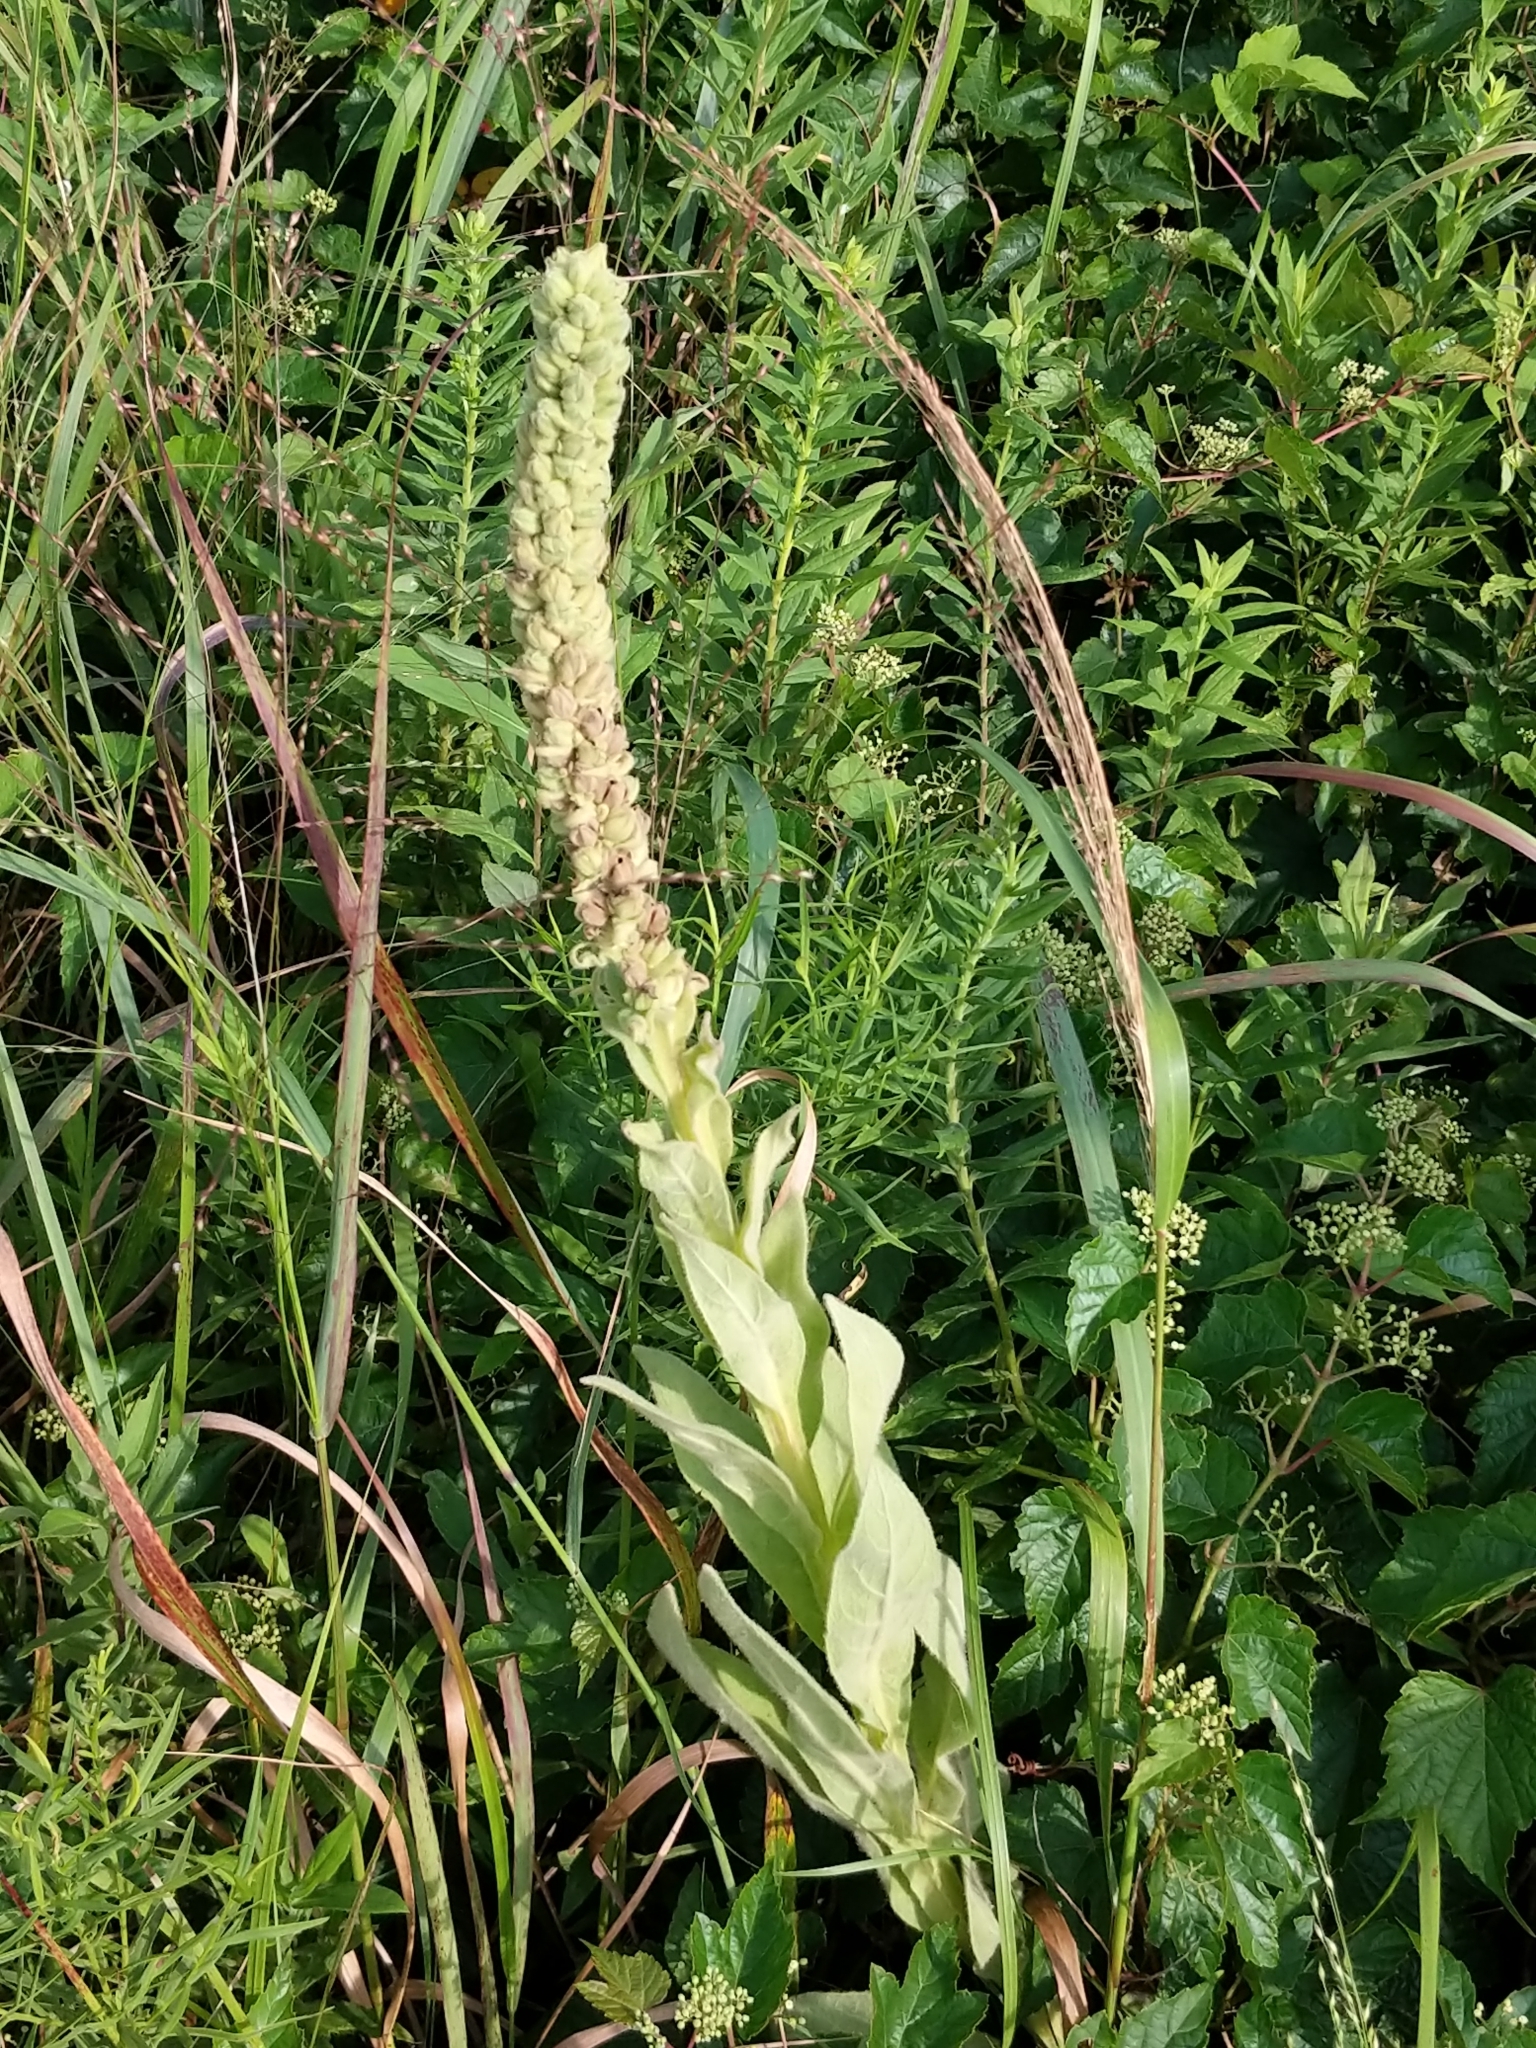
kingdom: Plantae
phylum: Tracheophyta
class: Magnoliopsida
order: Lamiales
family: Scrophulariaceae
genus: Verbascum
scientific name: Verbascum thapsus
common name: Common mullein
